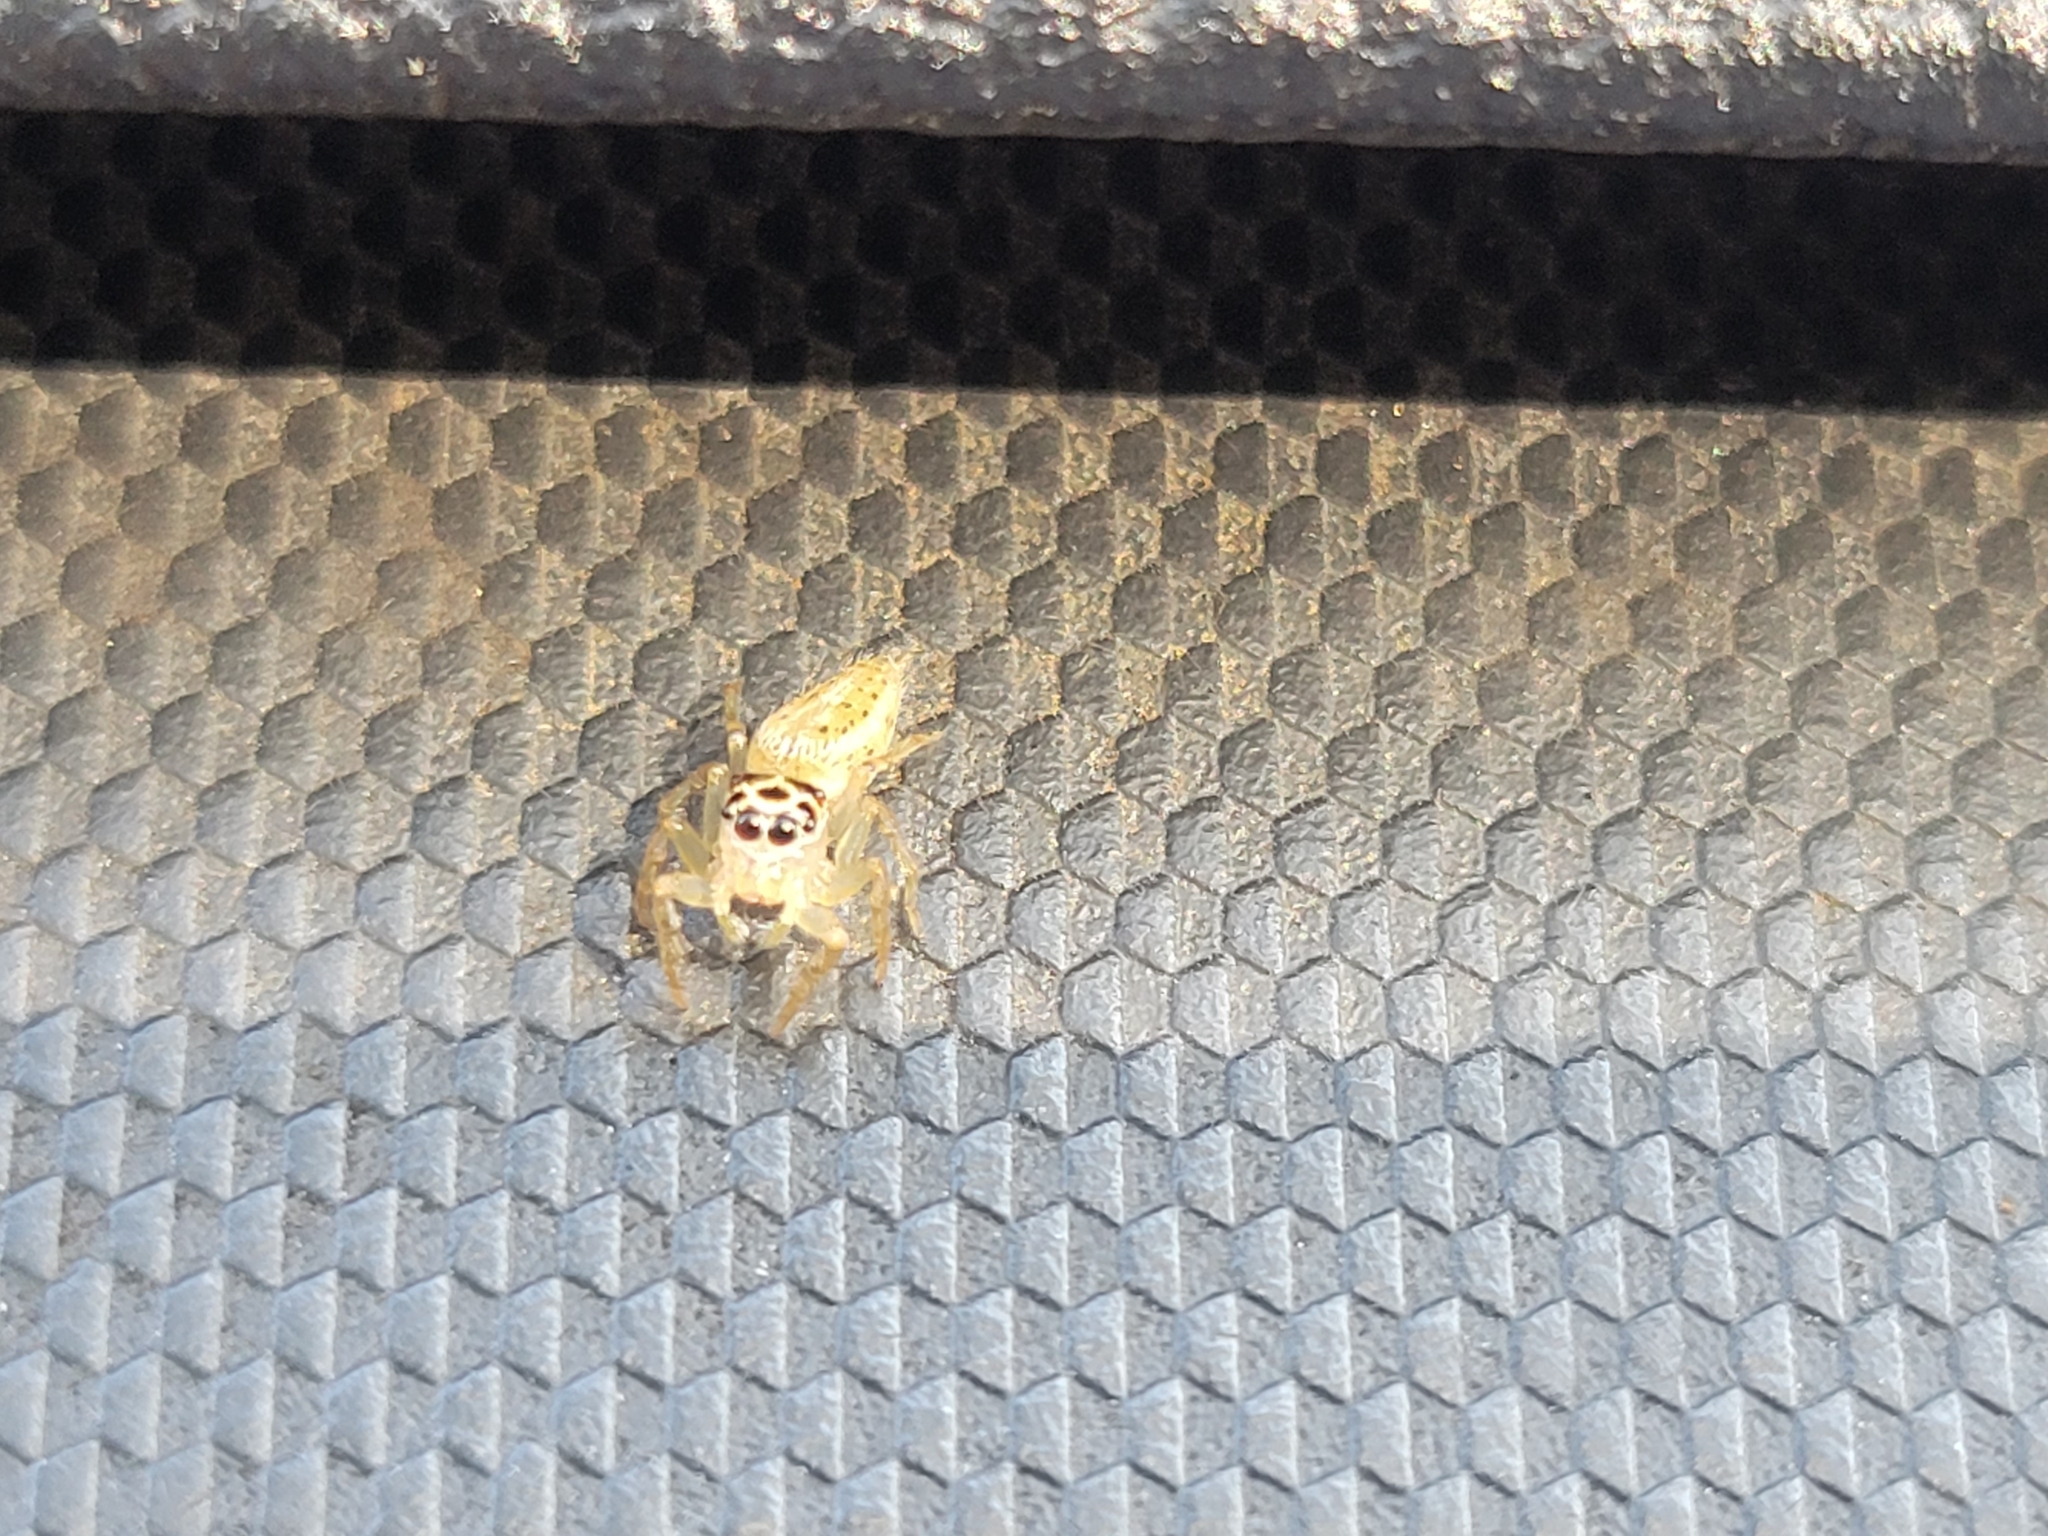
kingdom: Animalia
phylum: Arthropoda
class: Arachnida
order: Araneae
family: Salticidae
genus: Colonus
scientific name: Colonus sylvanus
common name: Jumping spiders
